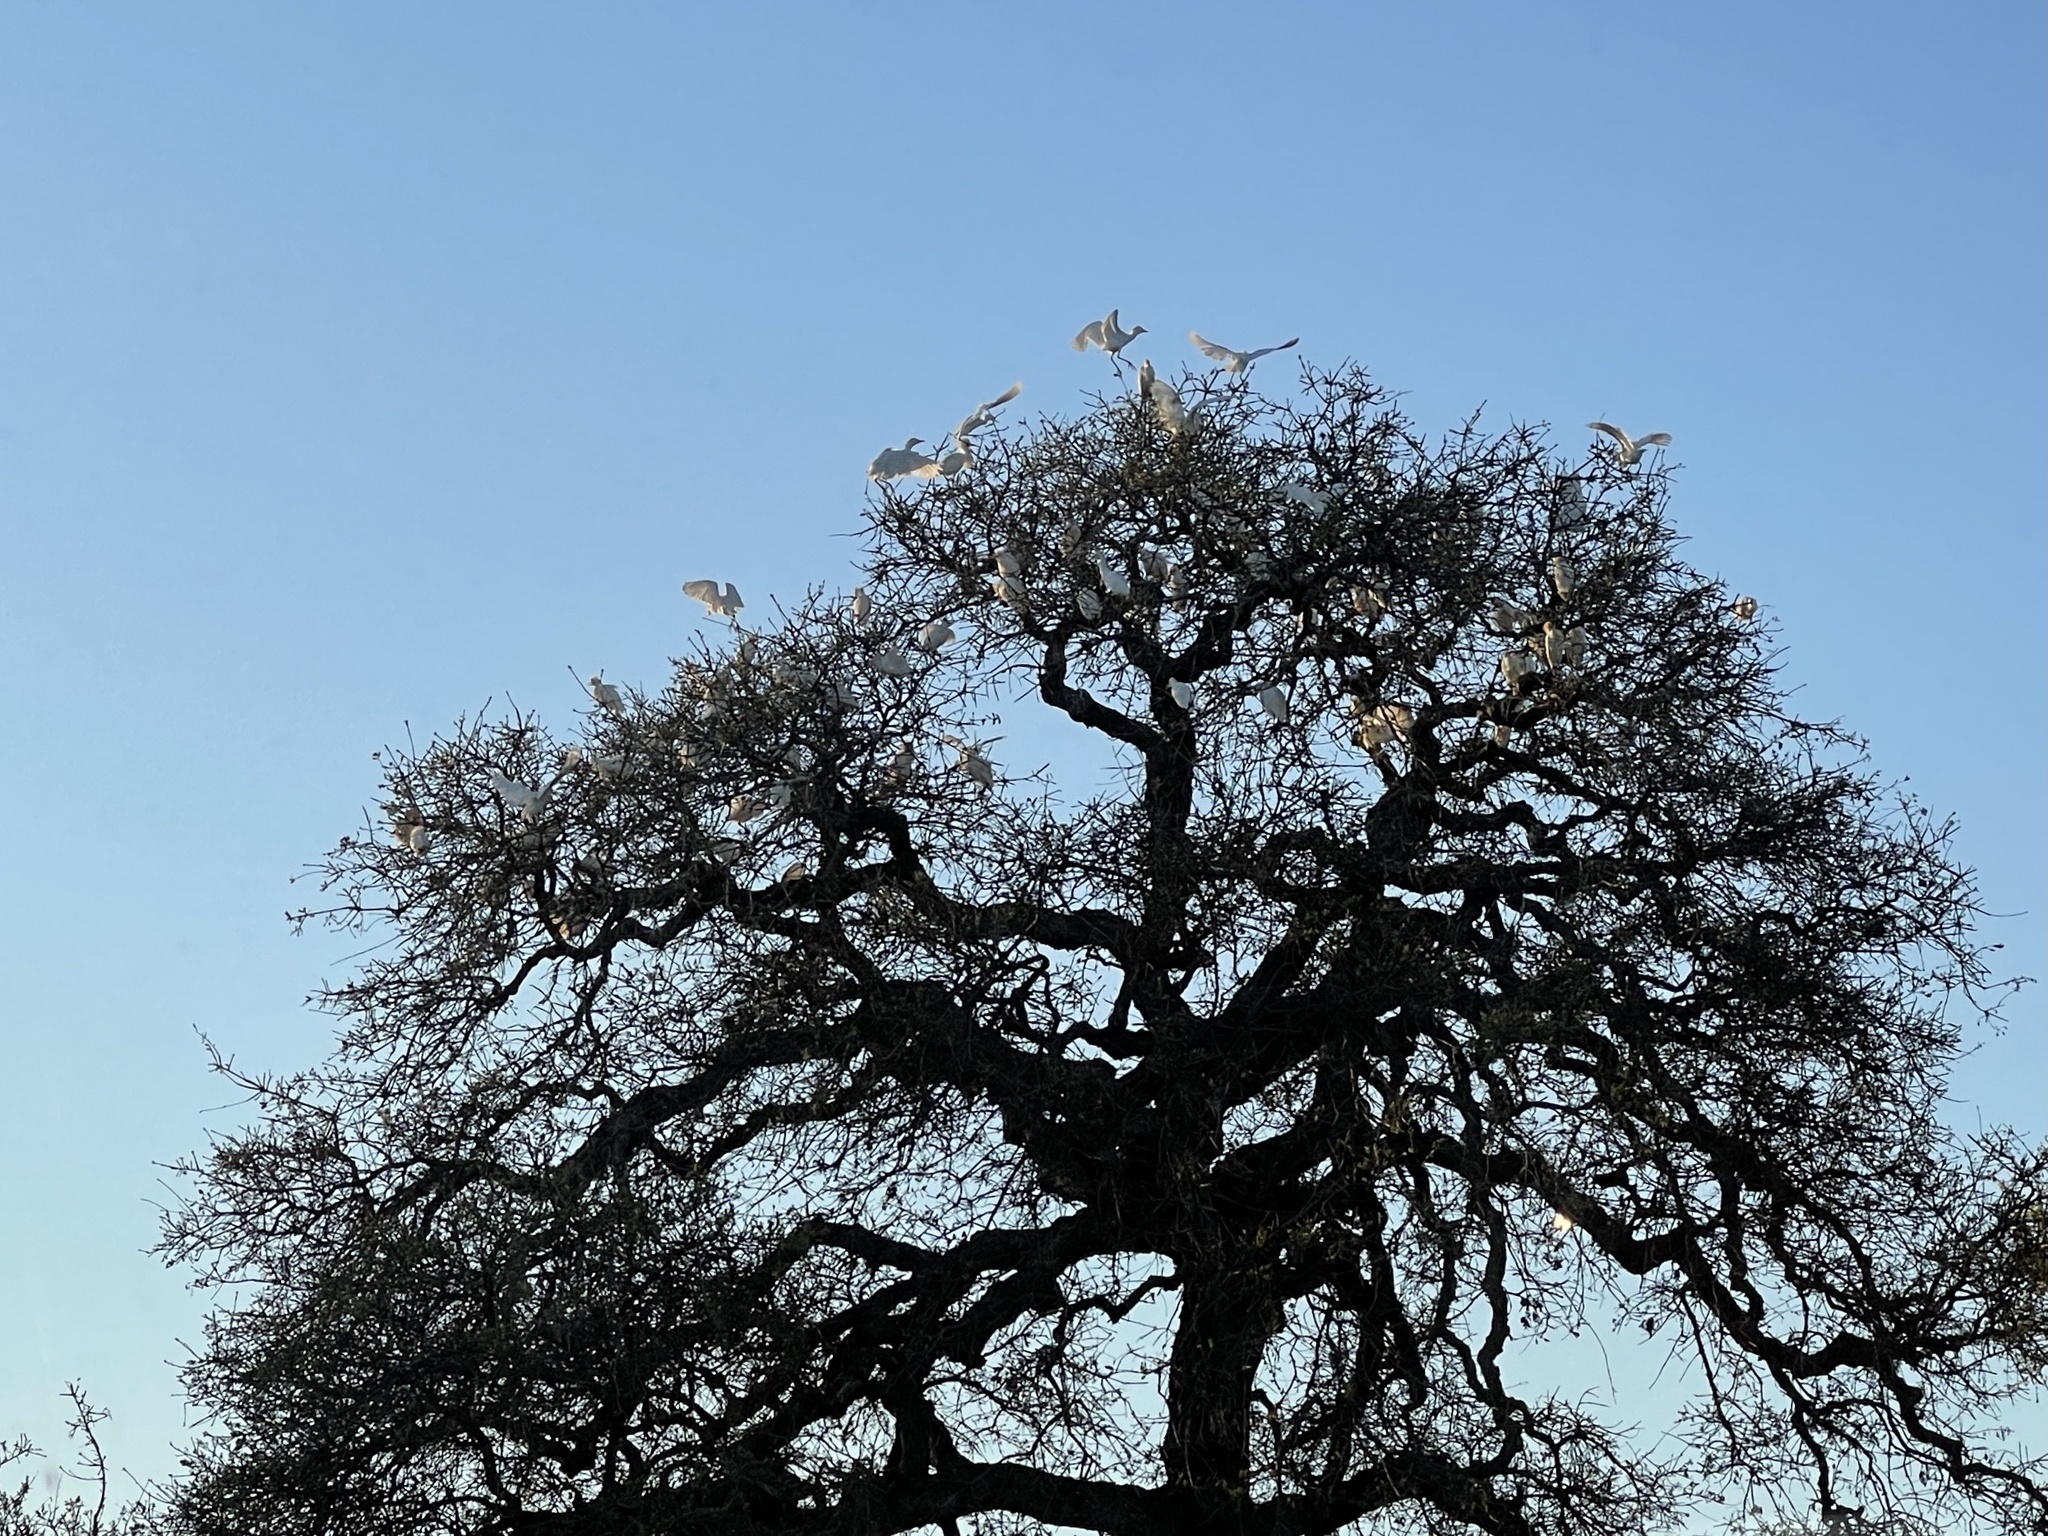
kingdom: Animalia
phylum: Chordata
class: Aves
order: Pelecaniformes
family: Ardeidae
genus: Bubulcus
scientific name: Bubulcus ibis
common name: Cattle egret
